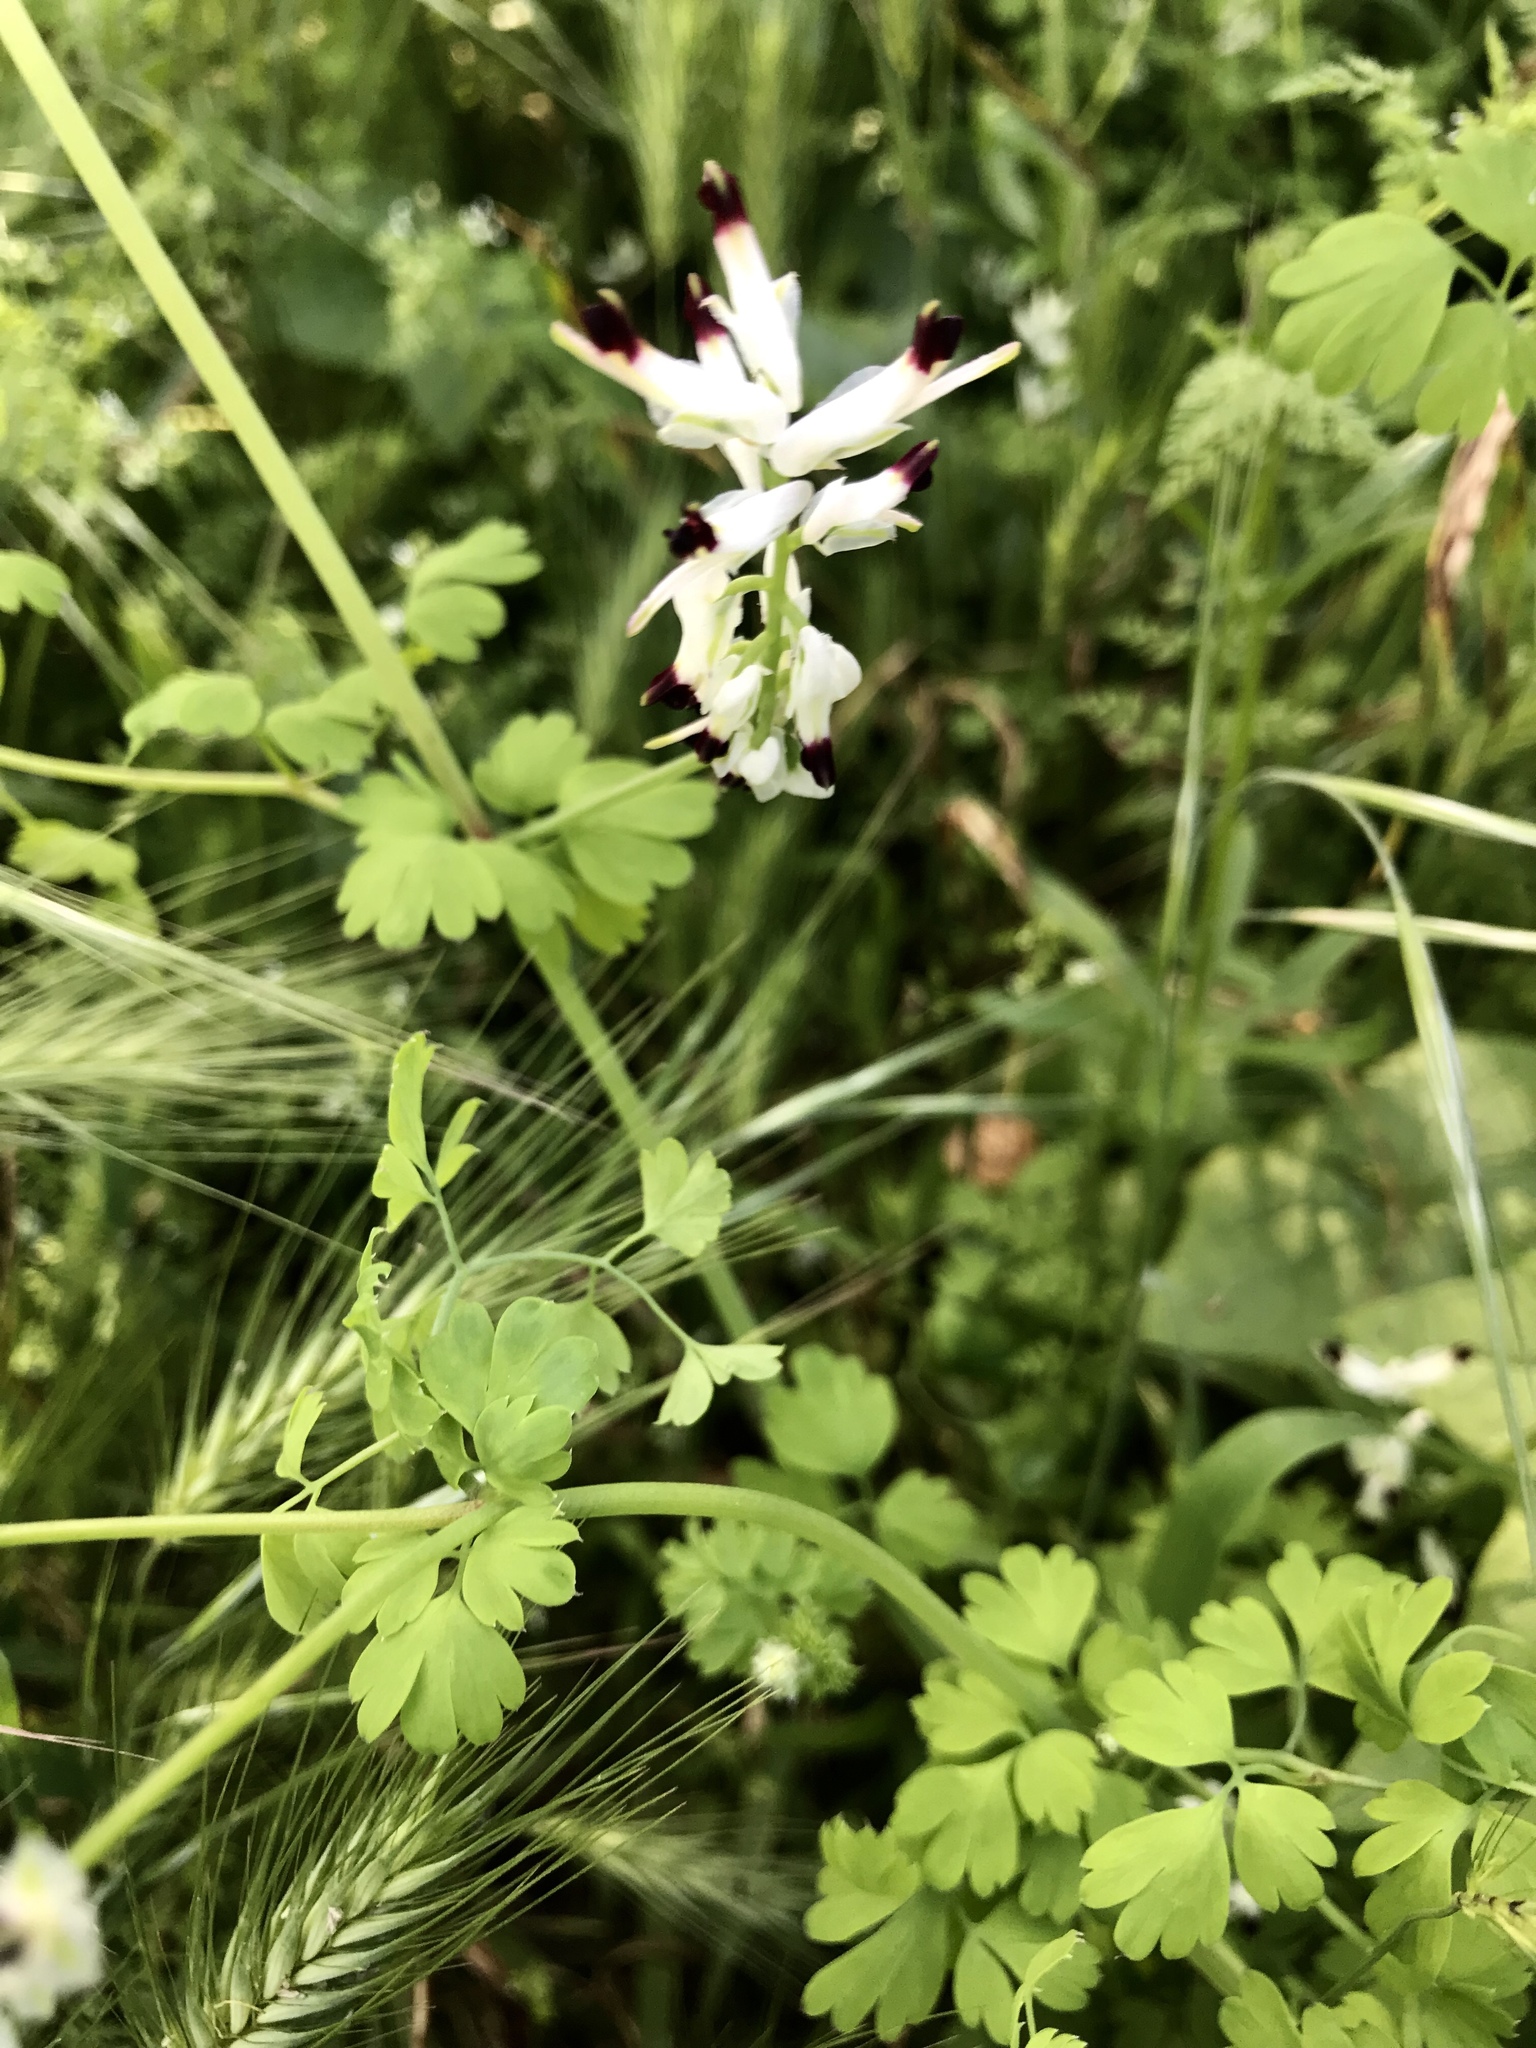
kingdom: Plantae
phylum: Tracheophyta
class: Magnoliopsida
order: Ranunculales
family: Papaveraceae
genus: Fumaria
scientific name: Fumaria capreolata
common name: White ramping-fumitory
